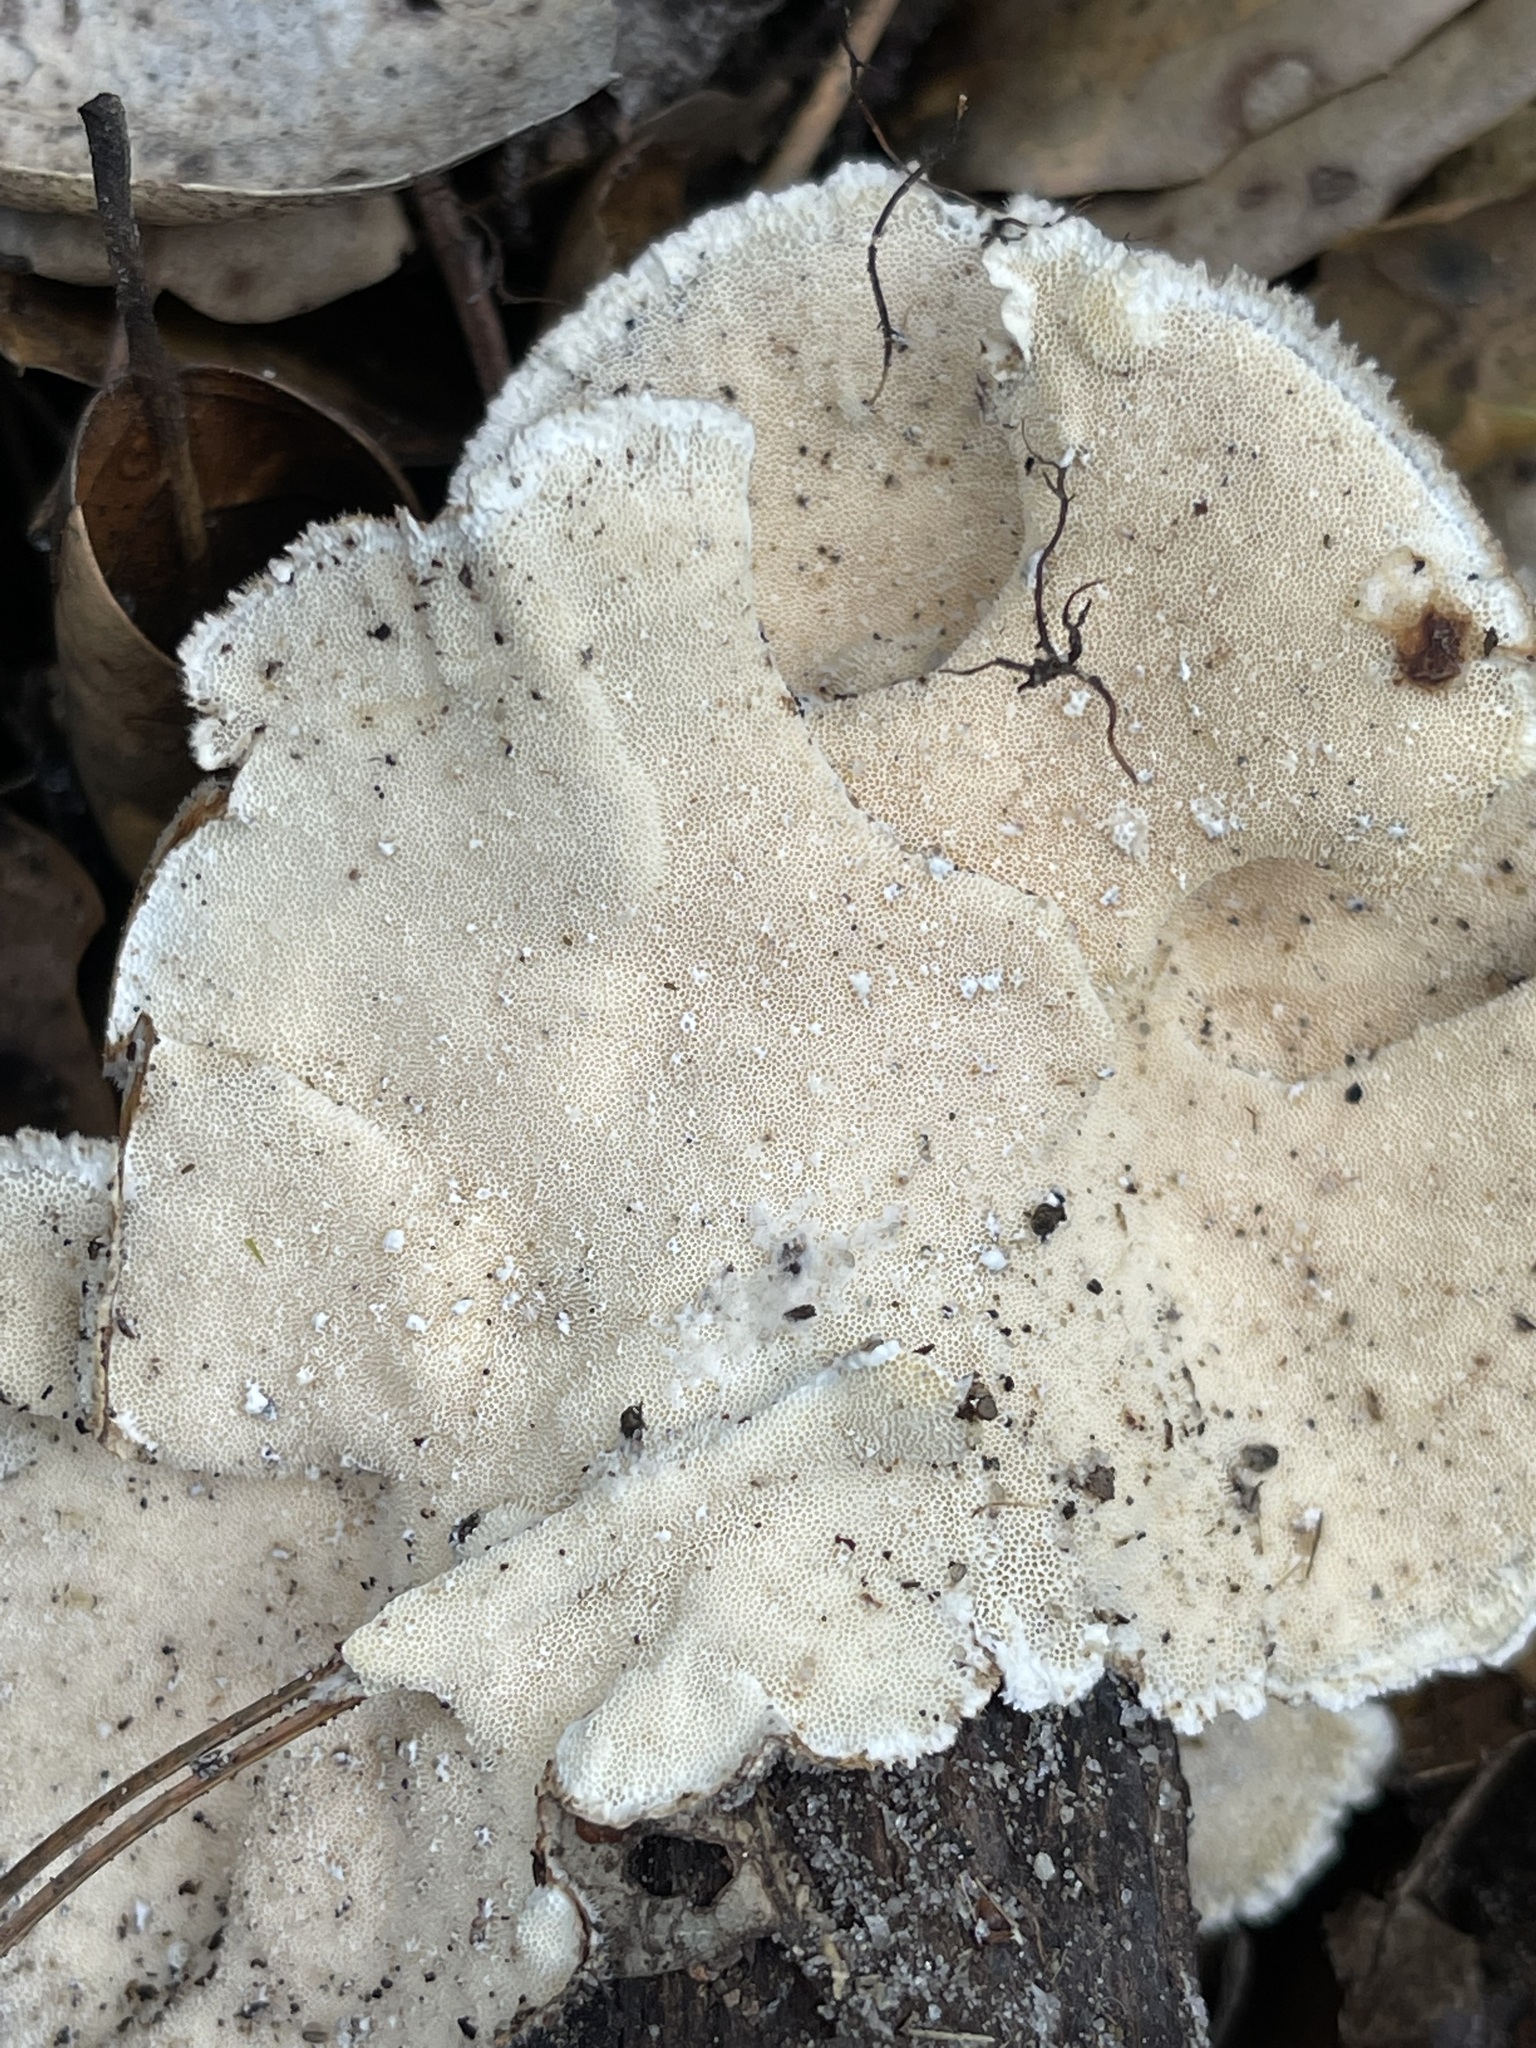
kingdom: Fungi
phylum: Basidiomycota
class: Agaricomycetes
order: Polyporales
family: Polyporaceae
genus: Trametes
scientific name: Trametes versicolor
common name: Turkeytail
